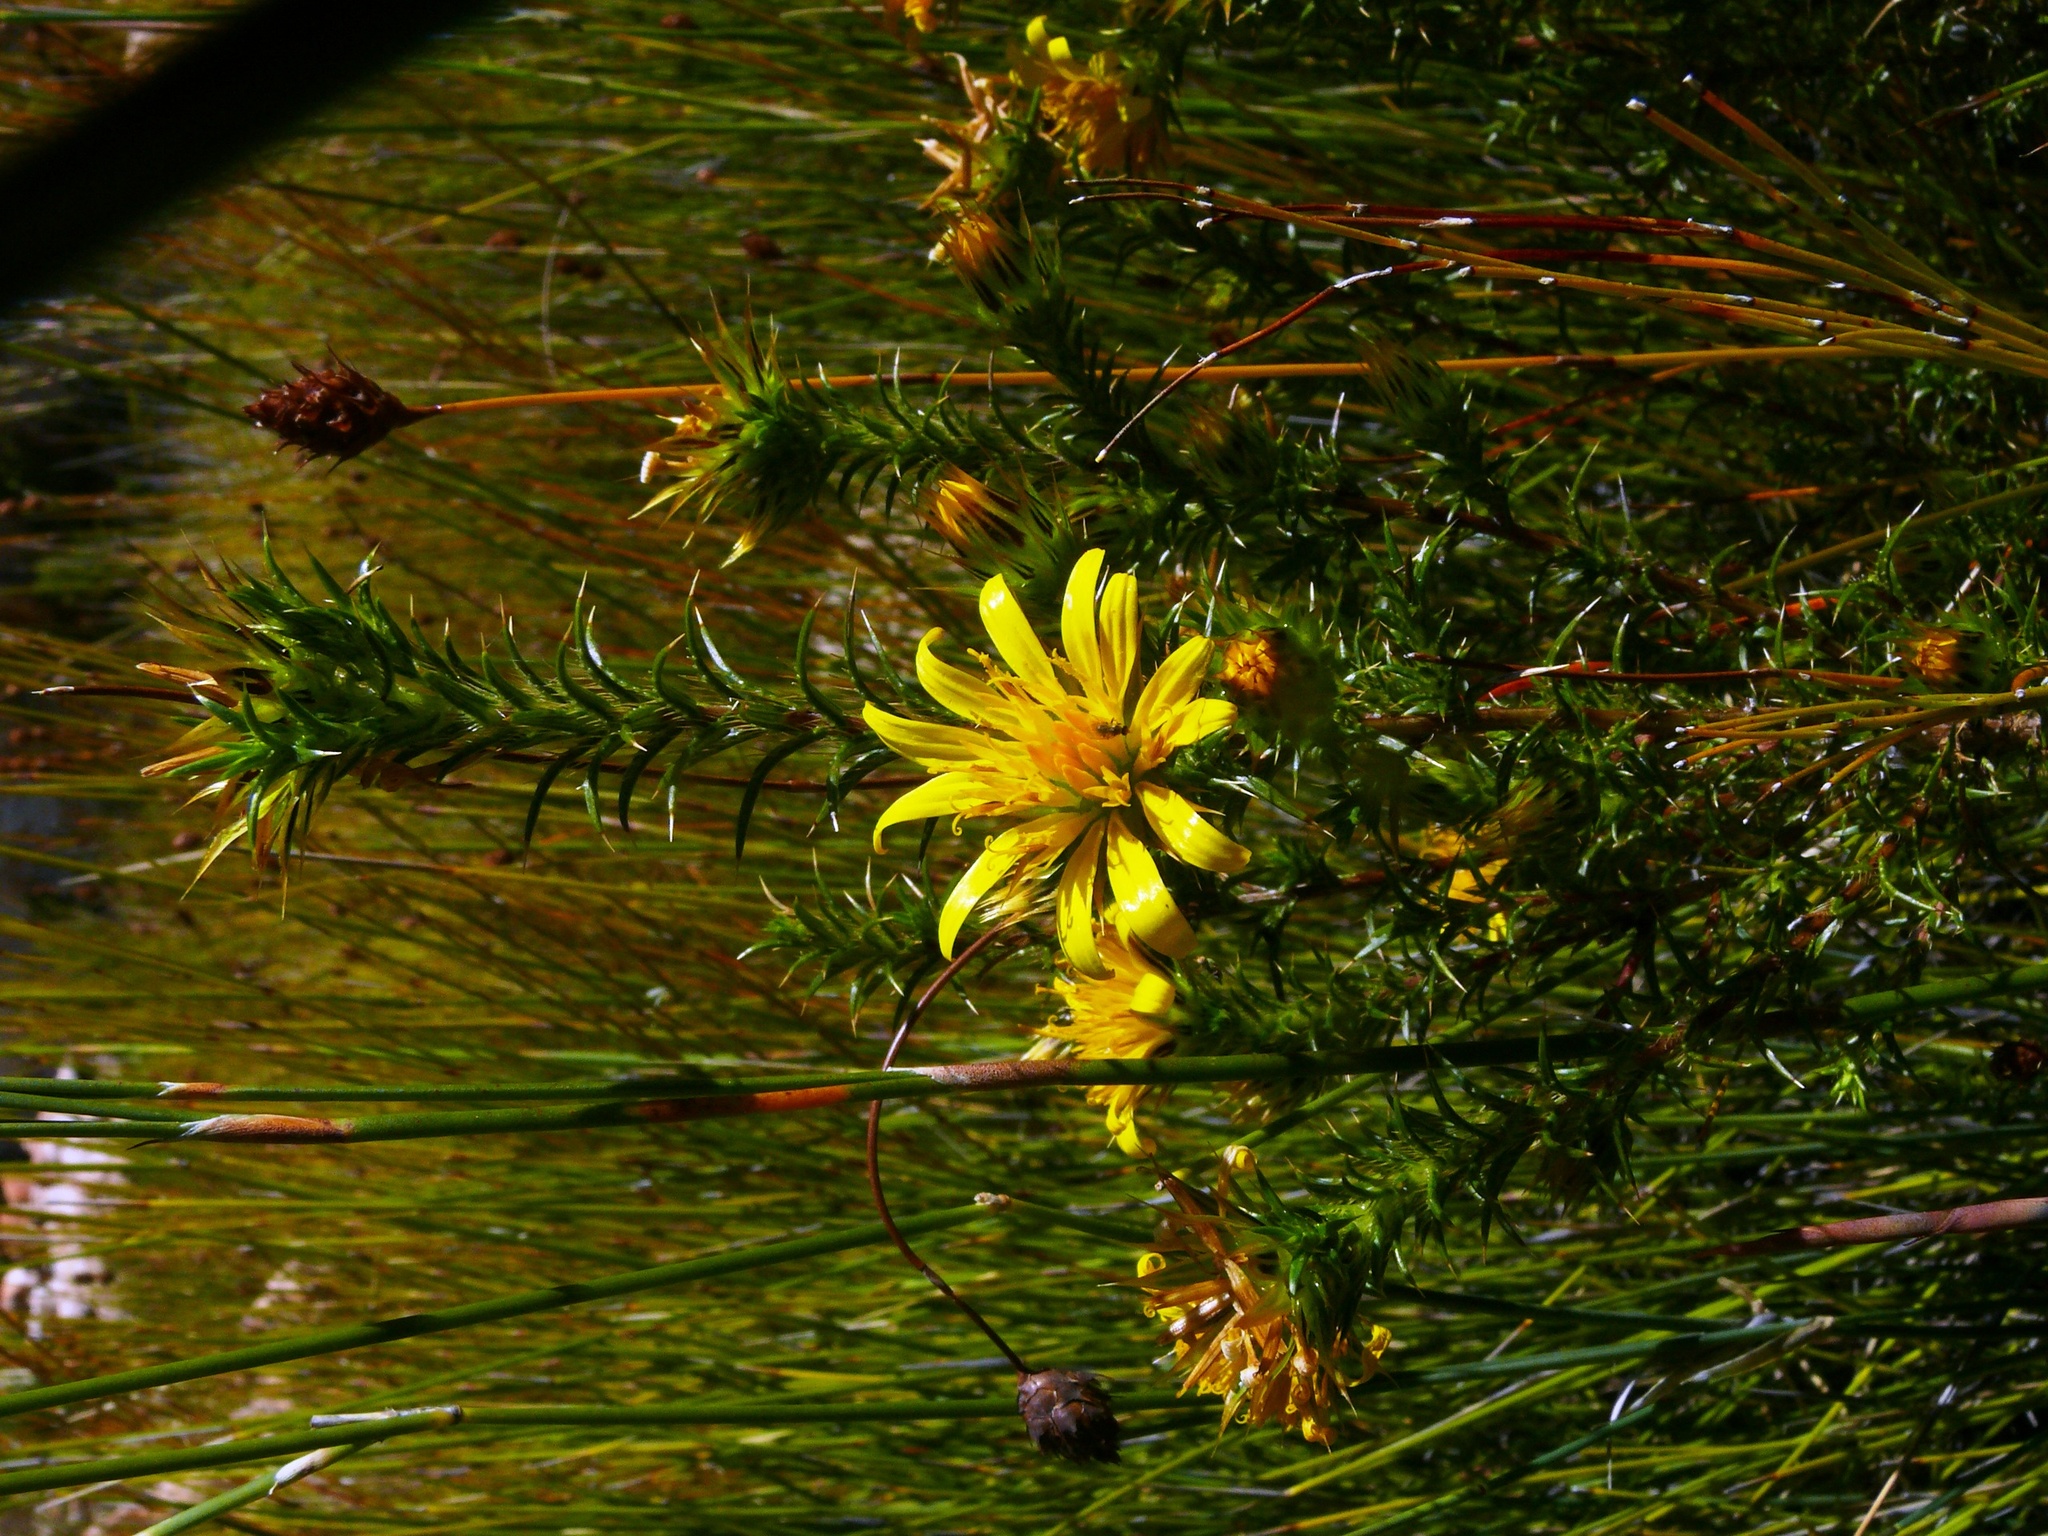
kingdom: Plantae
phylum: Tracheophyta
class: Magnoliopsida
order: Asterales
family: Asteraceae
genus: Cullumia
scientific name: Cullumia bisulca
